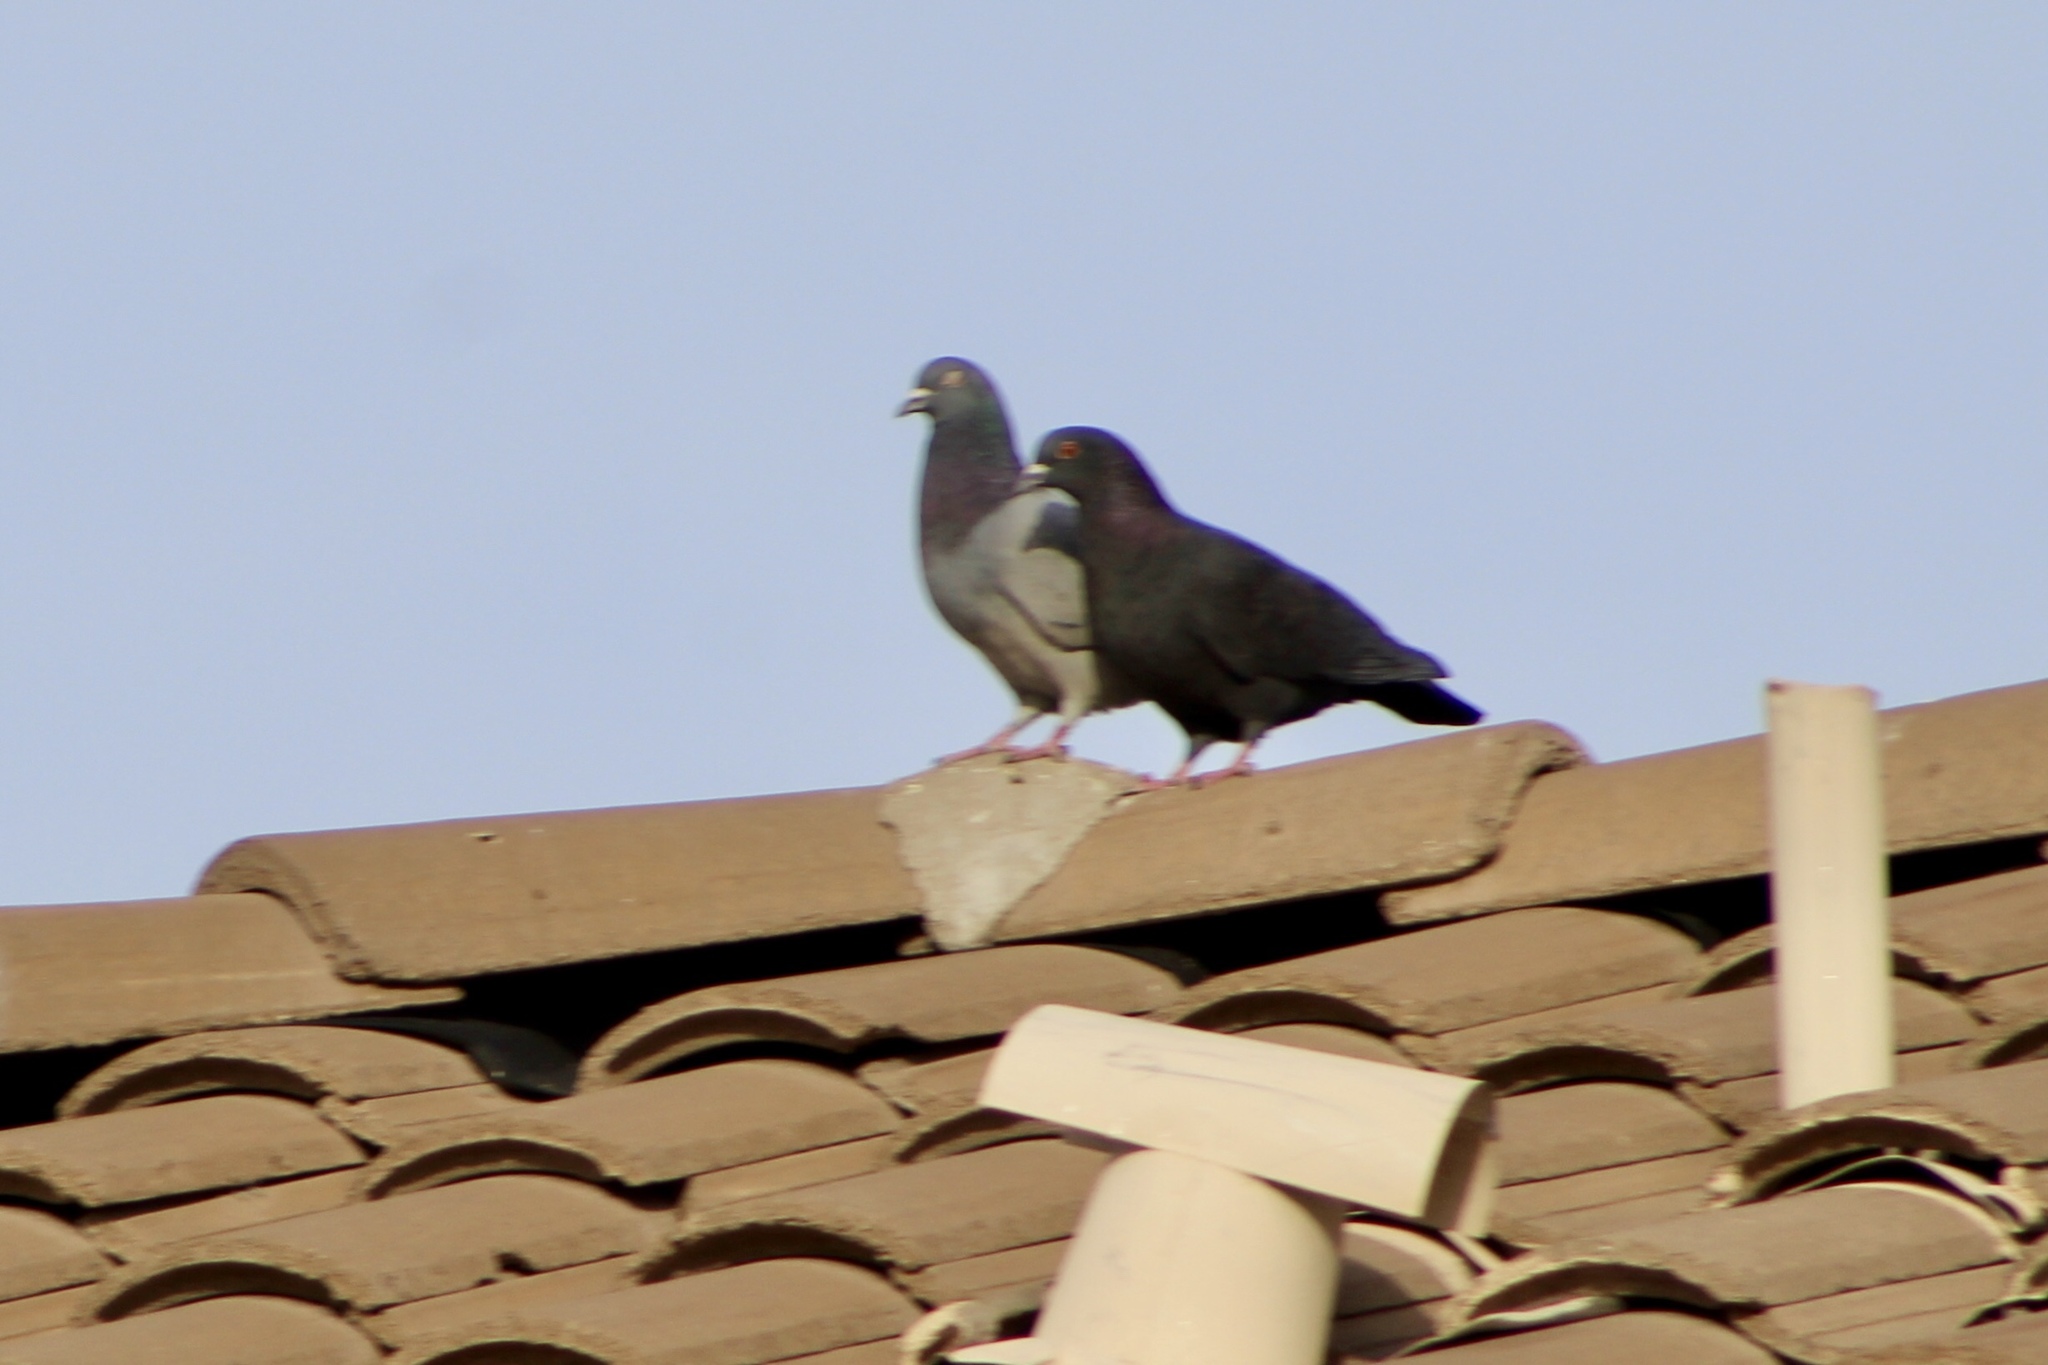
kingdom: Animalia
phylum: Chordata
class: Aves
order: Columbiformes
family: Columbidae
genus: Columba
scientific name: Columba livia
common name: Rock pigeon
